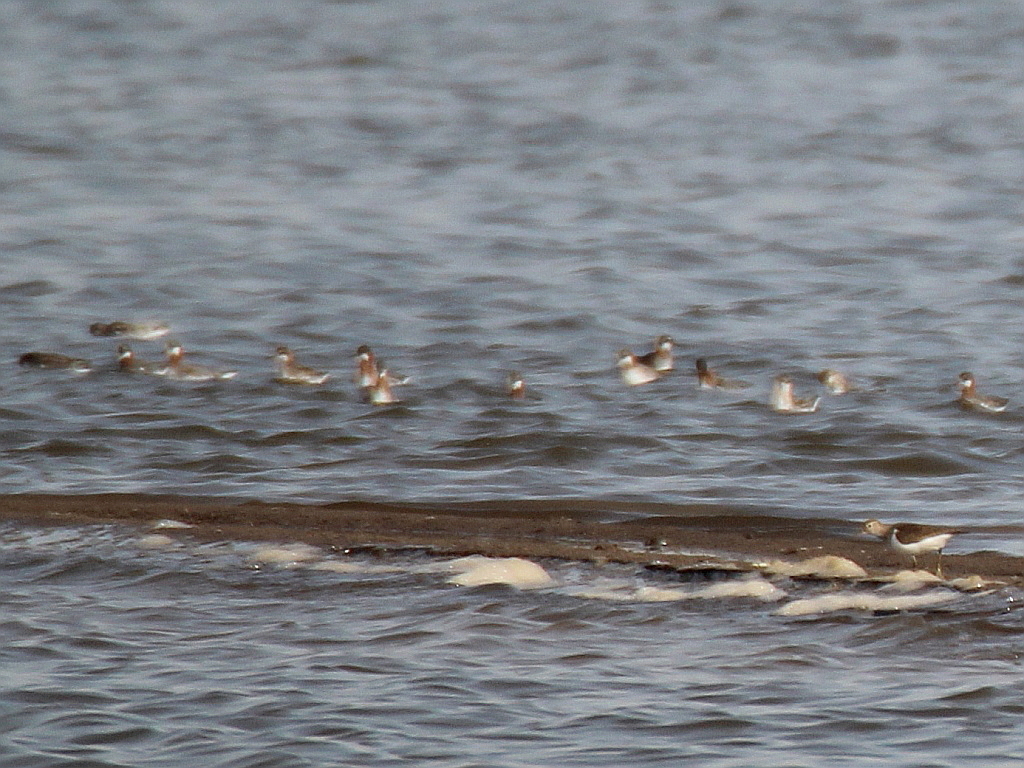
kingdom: Animalia
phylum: Chordata
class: Aves
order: Charadriiformes
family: Scolopacidae
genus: Phalaropus
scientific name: Phalaropus lobatus
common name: Red-necked phalarope
